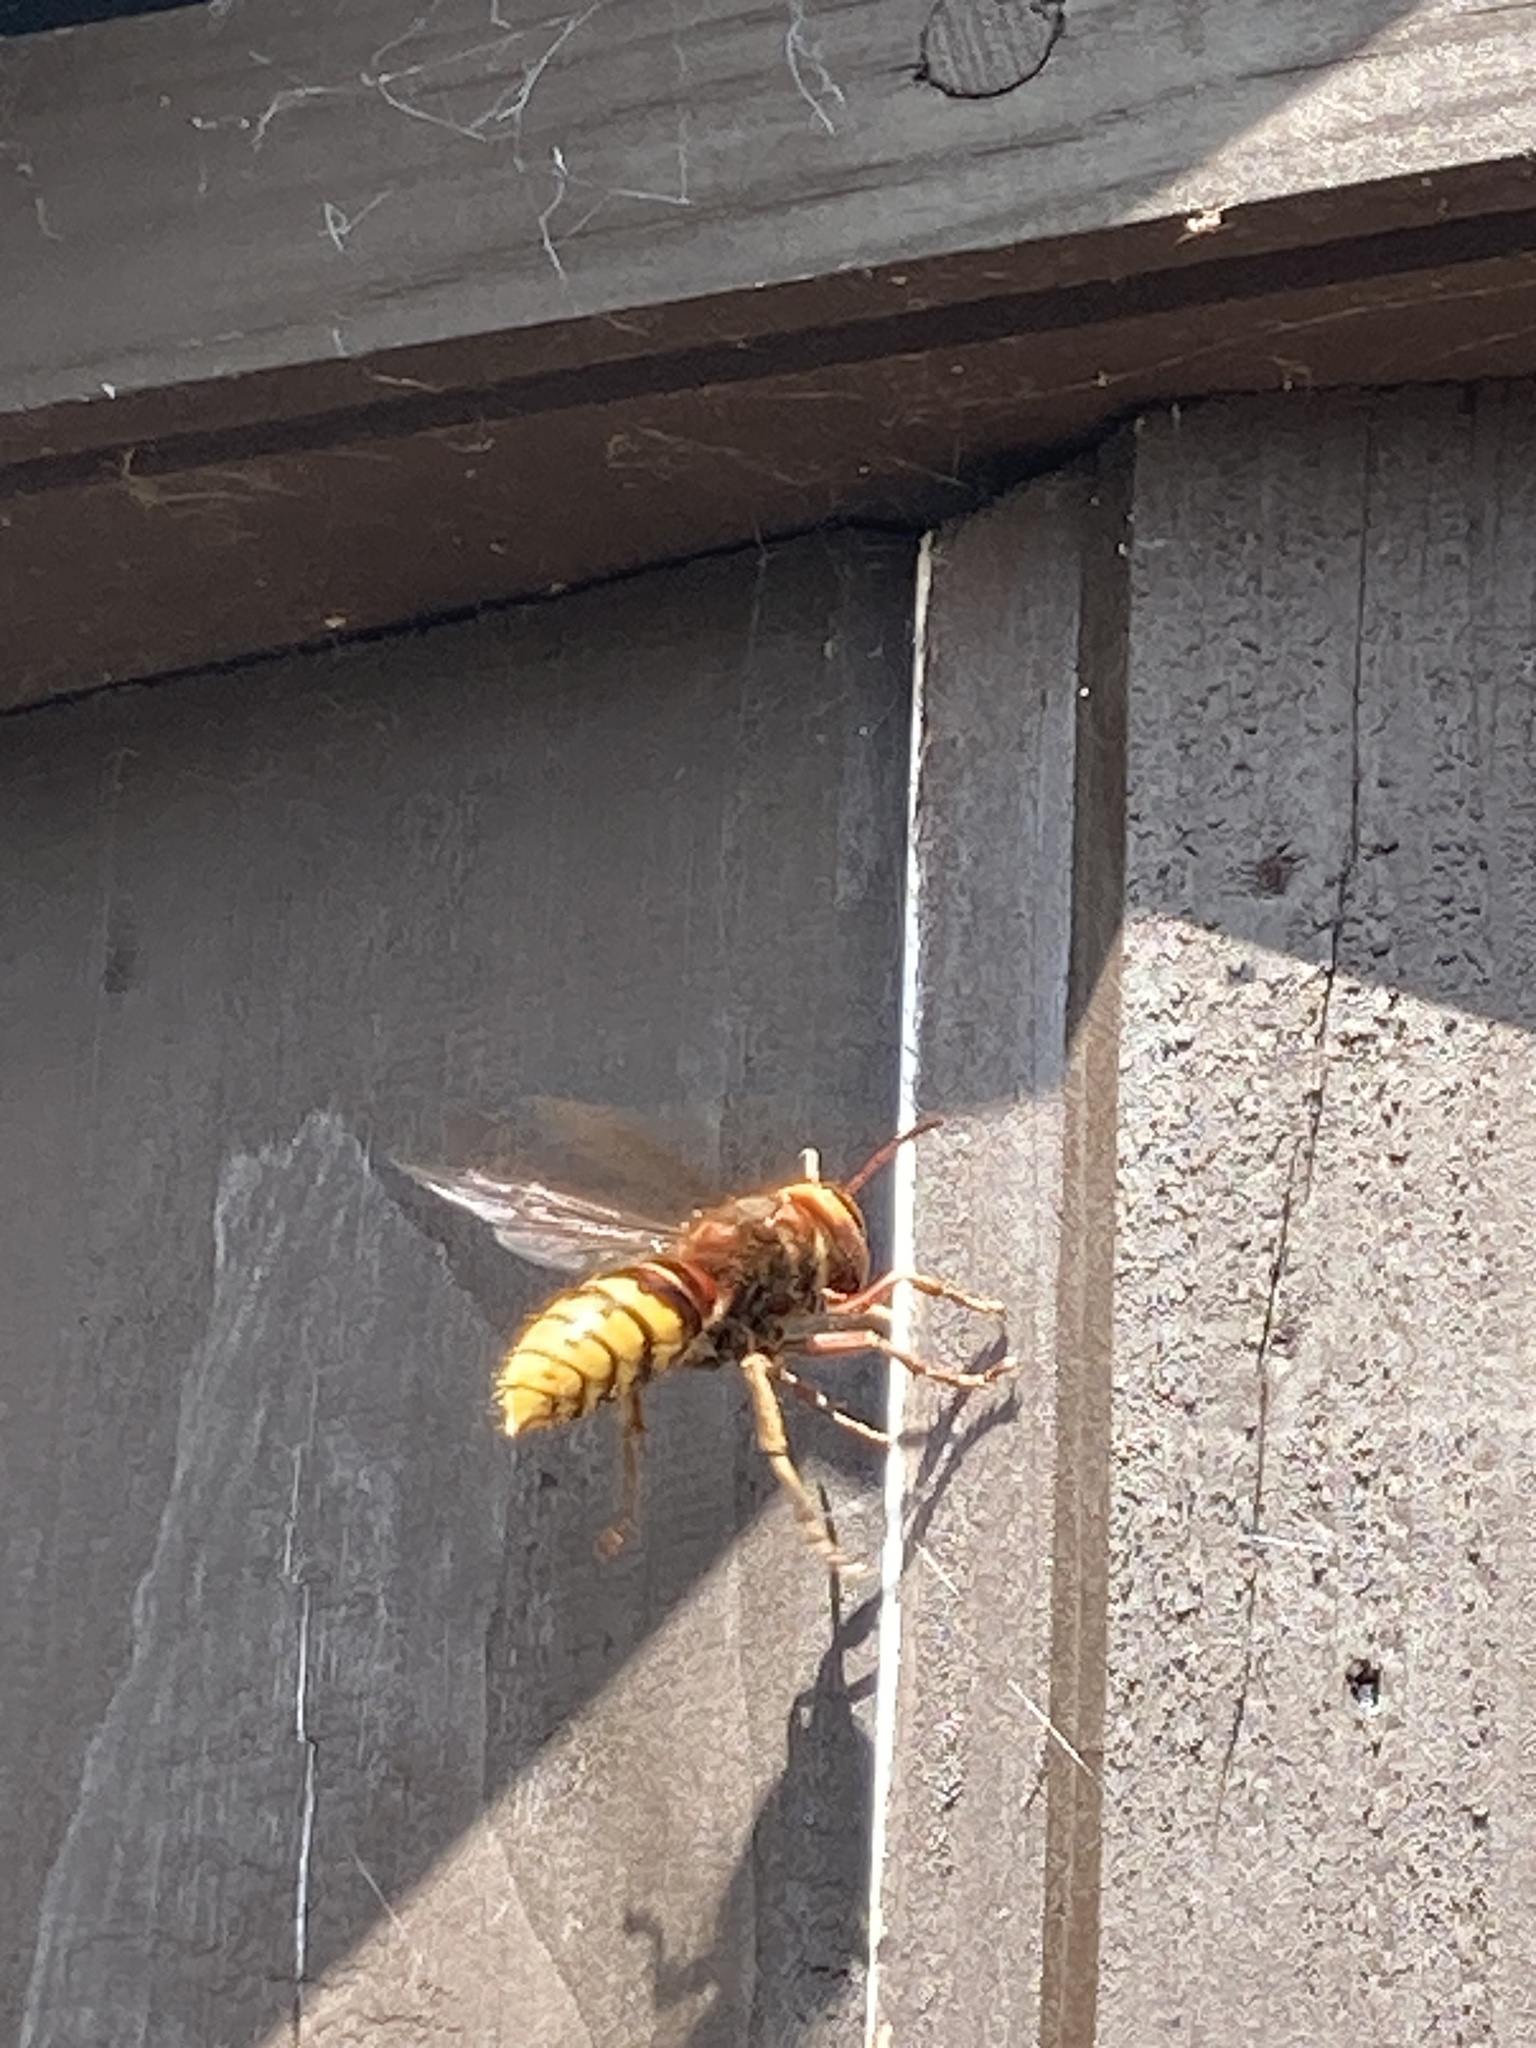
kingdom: Animalia
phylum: Arthropoda
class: Insecta
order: Hymenoptera
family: Vespidae
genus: Vespa
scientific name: Vespa crabro
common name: Hornet
